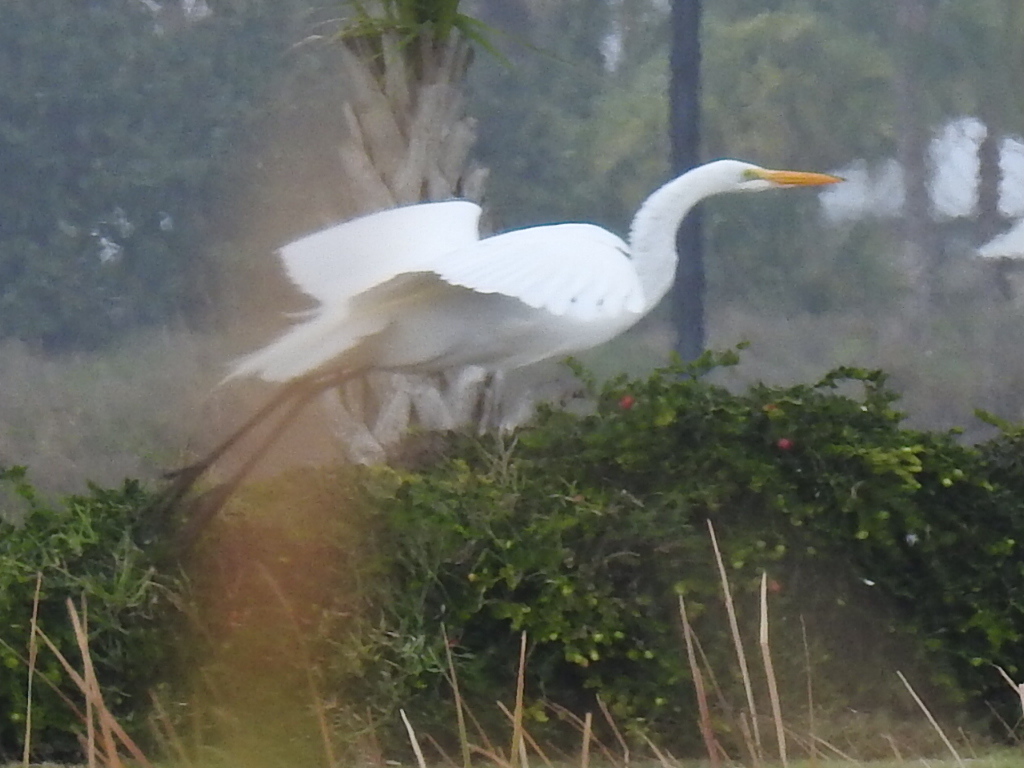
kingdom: Animalia
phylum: Chordata
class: Aves
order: Pelecaniformes
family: Ardeidae
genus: Ardea
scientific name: Ardea alba
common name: Great egret
